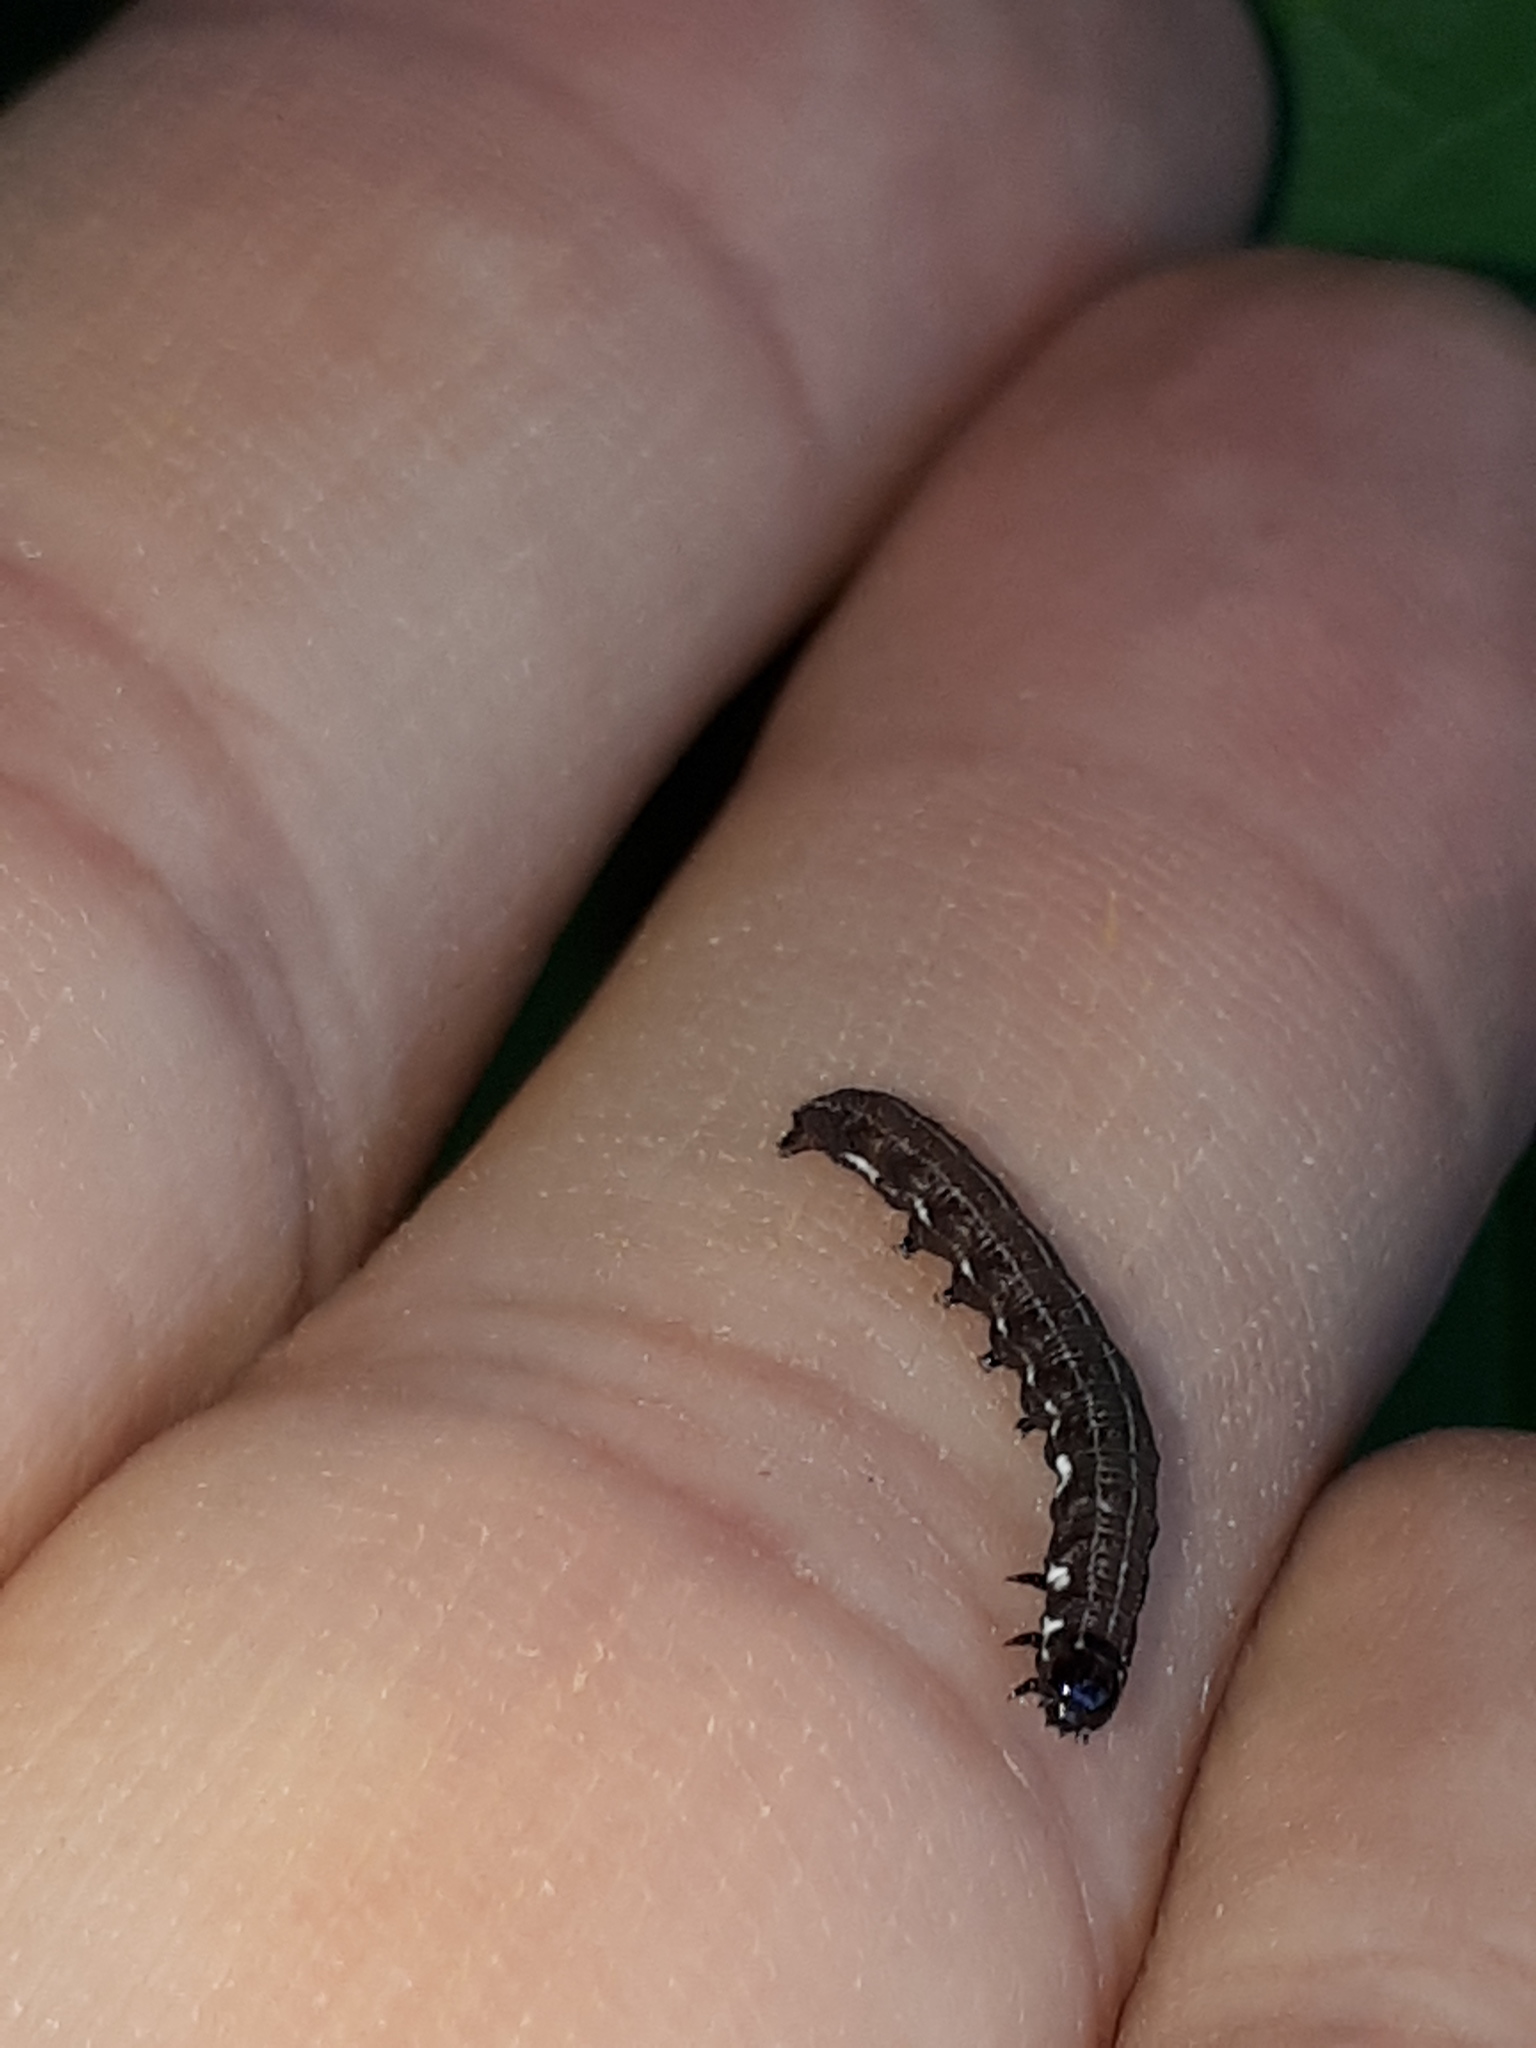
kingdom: Animalia
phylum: Arthropoda
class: Insecta
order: Lepidoptera
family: Noctuidae
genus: Eupsilia
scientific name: Eupsilia transversa
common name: Satellite
